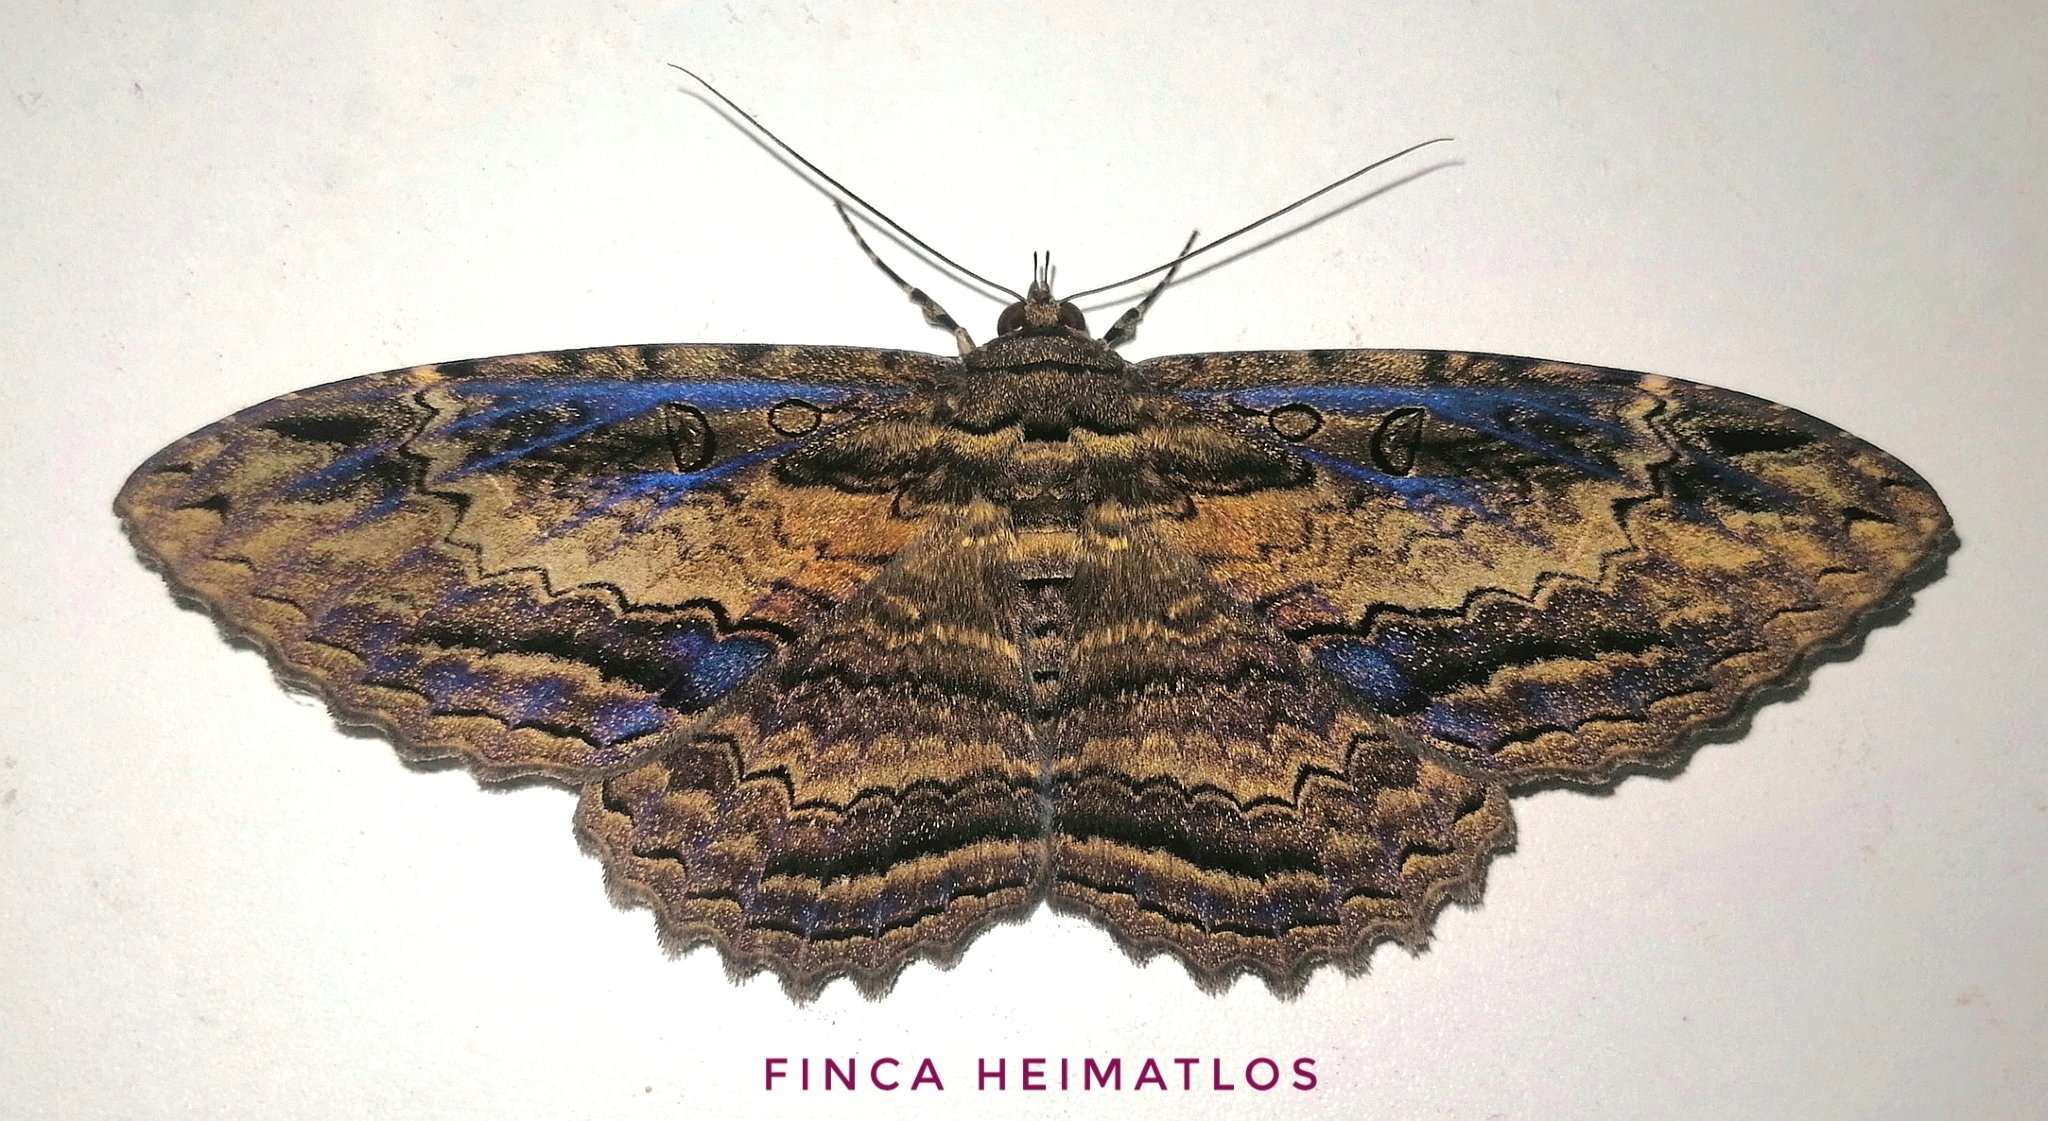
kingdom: Animalia
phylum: Arthropoda
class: Insecta
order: Lepidoptera
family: Erebidae
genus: Feigeria
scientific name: Feigeria buteo
